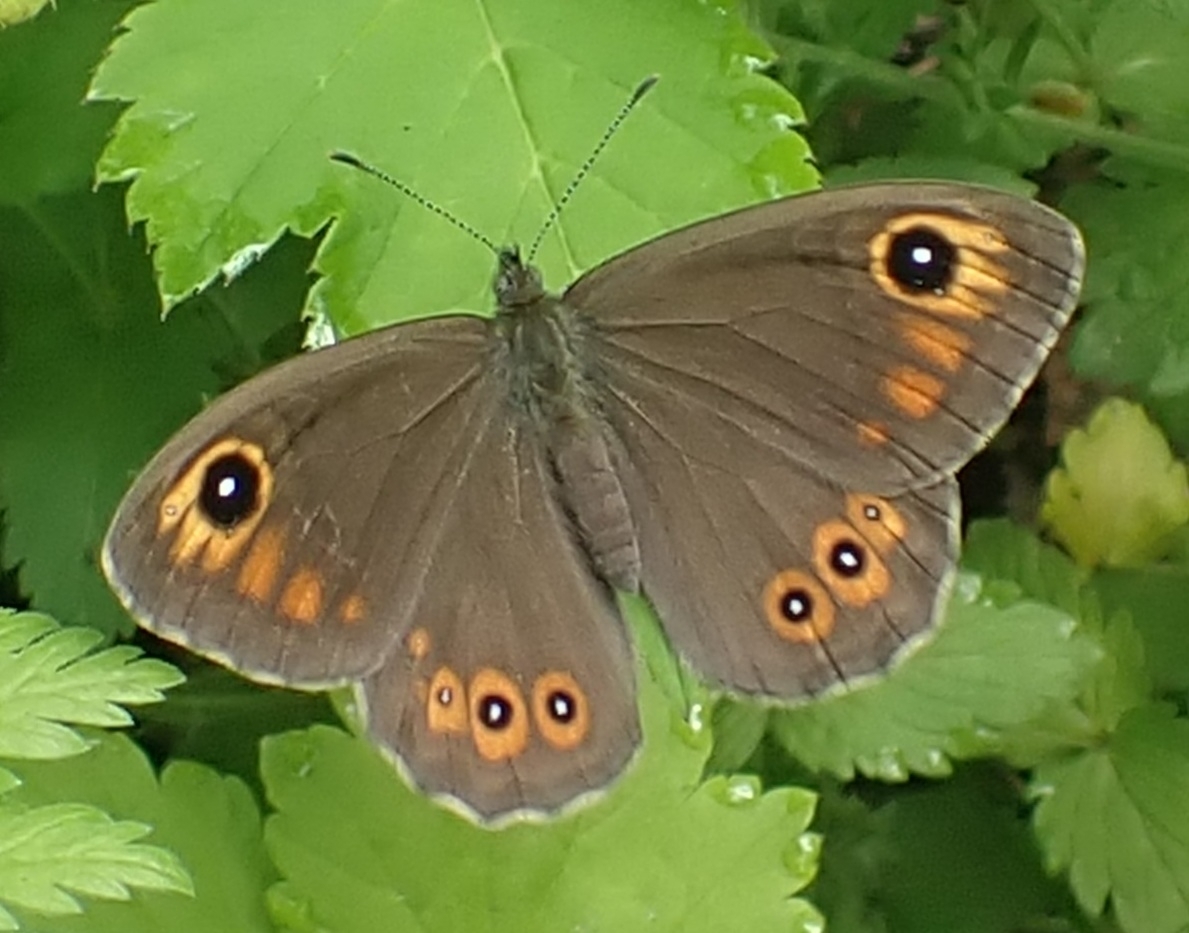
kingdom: Animalia
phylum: Arthropoda
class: Insecta
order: Lepidoptera
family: Nymphalidae
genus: Pararge
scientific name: Pararge Lasiommata maera
